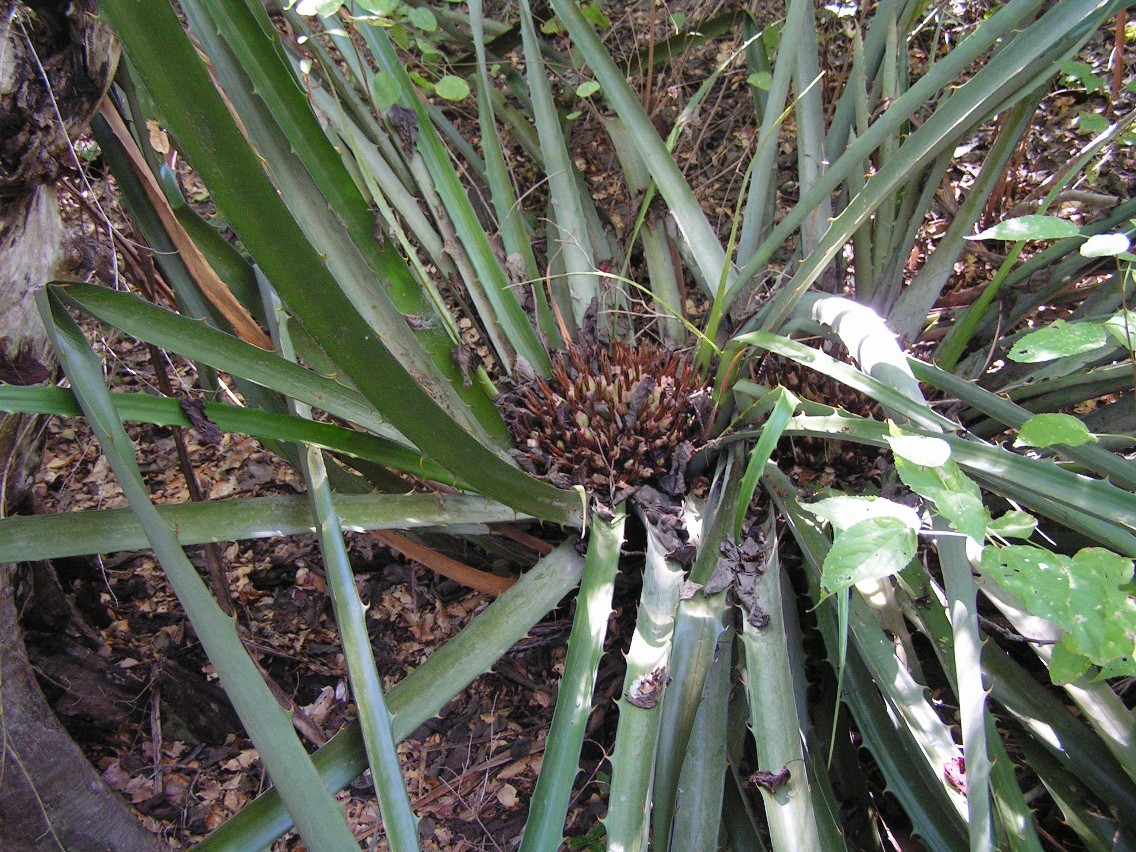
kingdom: Plantae
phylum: Tracheophyta
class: Liliopsida
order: Poales
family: Bromeliaceae
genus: Bromelia
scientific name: Bromelia karatas
